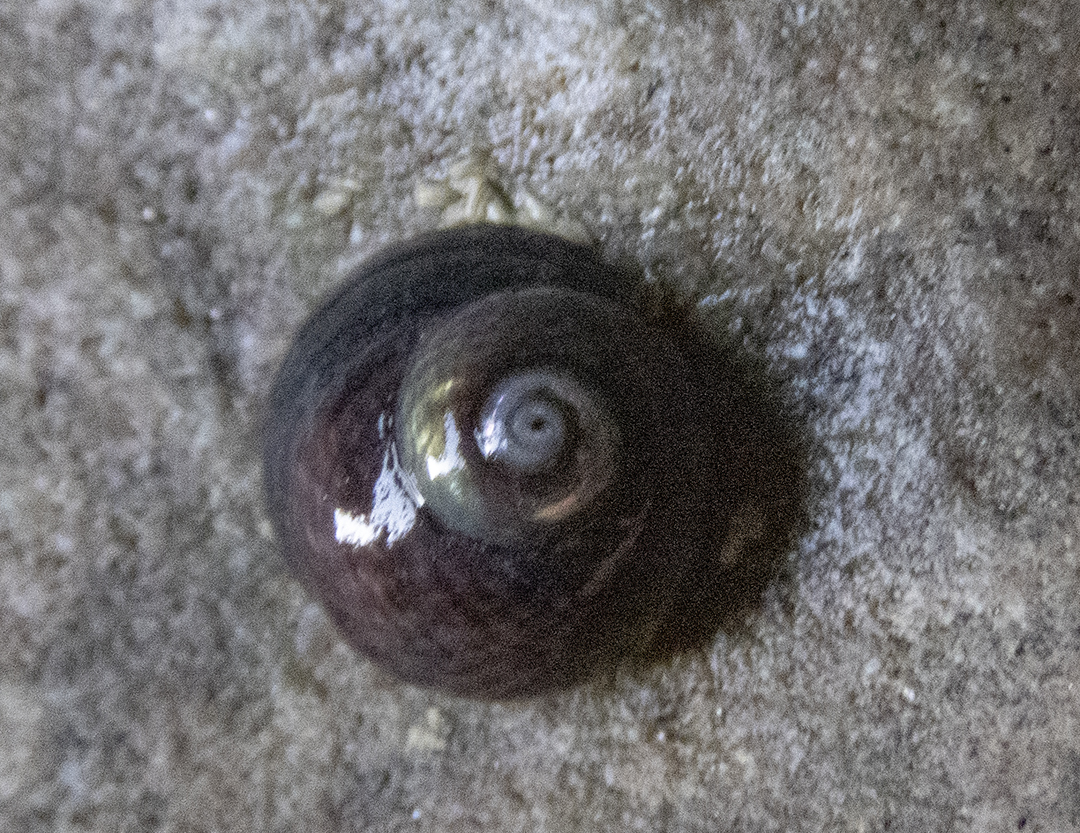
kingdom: Animalia
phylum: Mollusca
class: Gastropoda
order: Trochida
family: Trochidae
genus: Diloma
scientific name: Diloma coracinum
